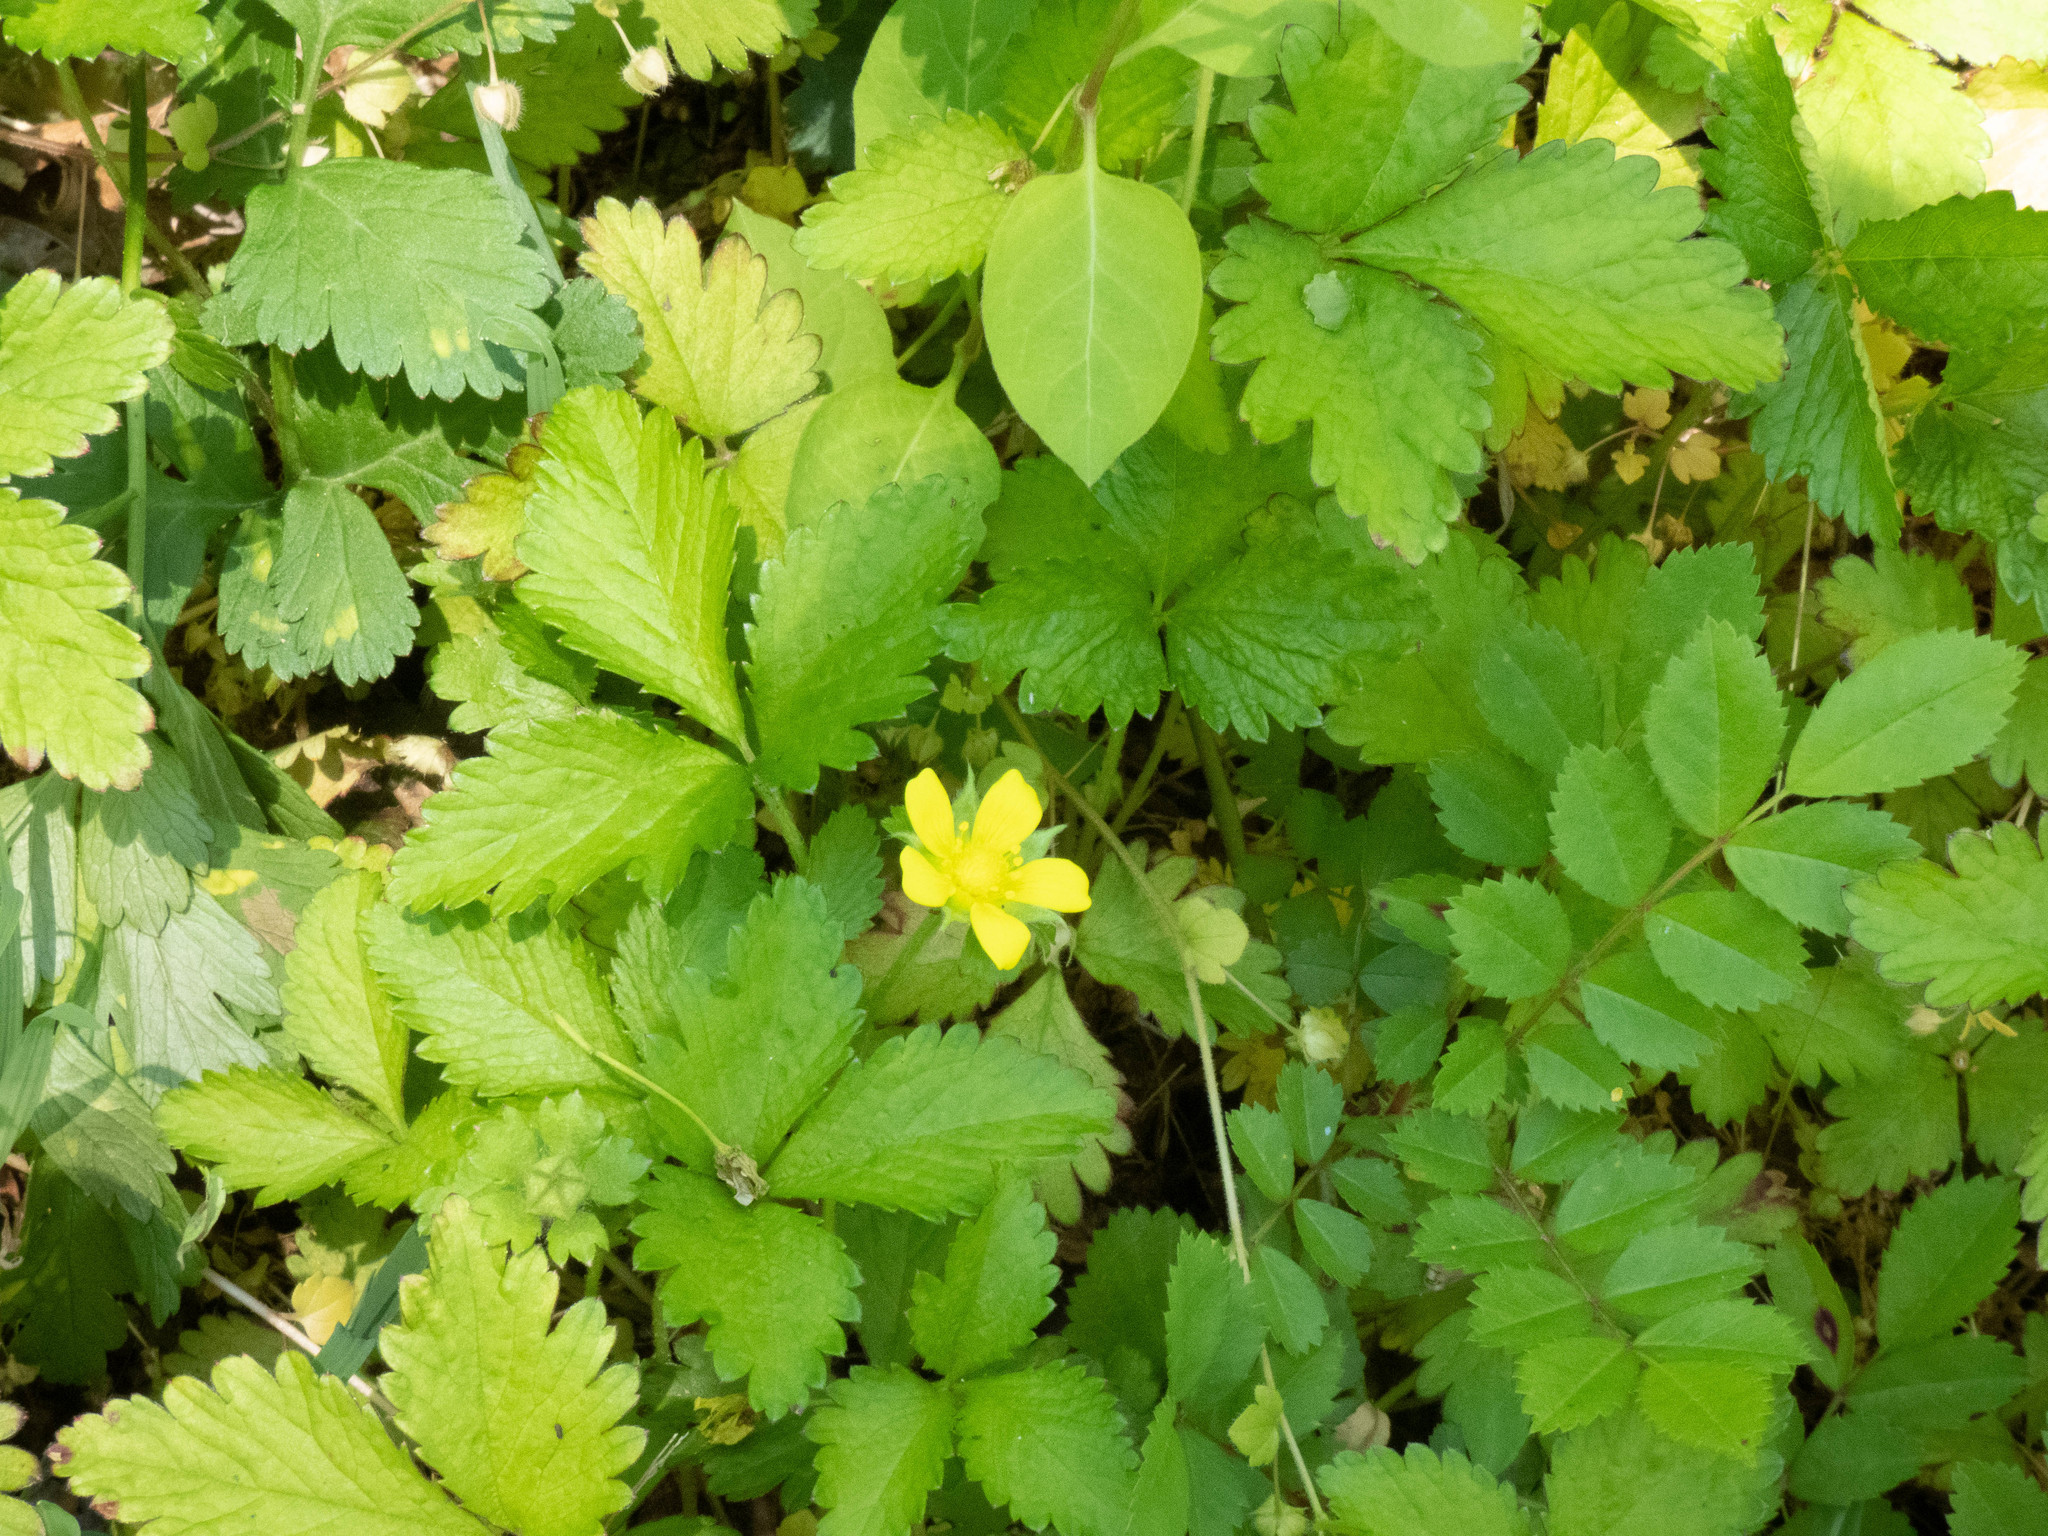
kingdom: Plantae
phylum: Tracheophyta
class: Magnoliopsida
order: Rosales
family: Rosaceae
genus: Potentilla
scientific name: Potentilla indica
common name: Yellow-flowered strawberry
